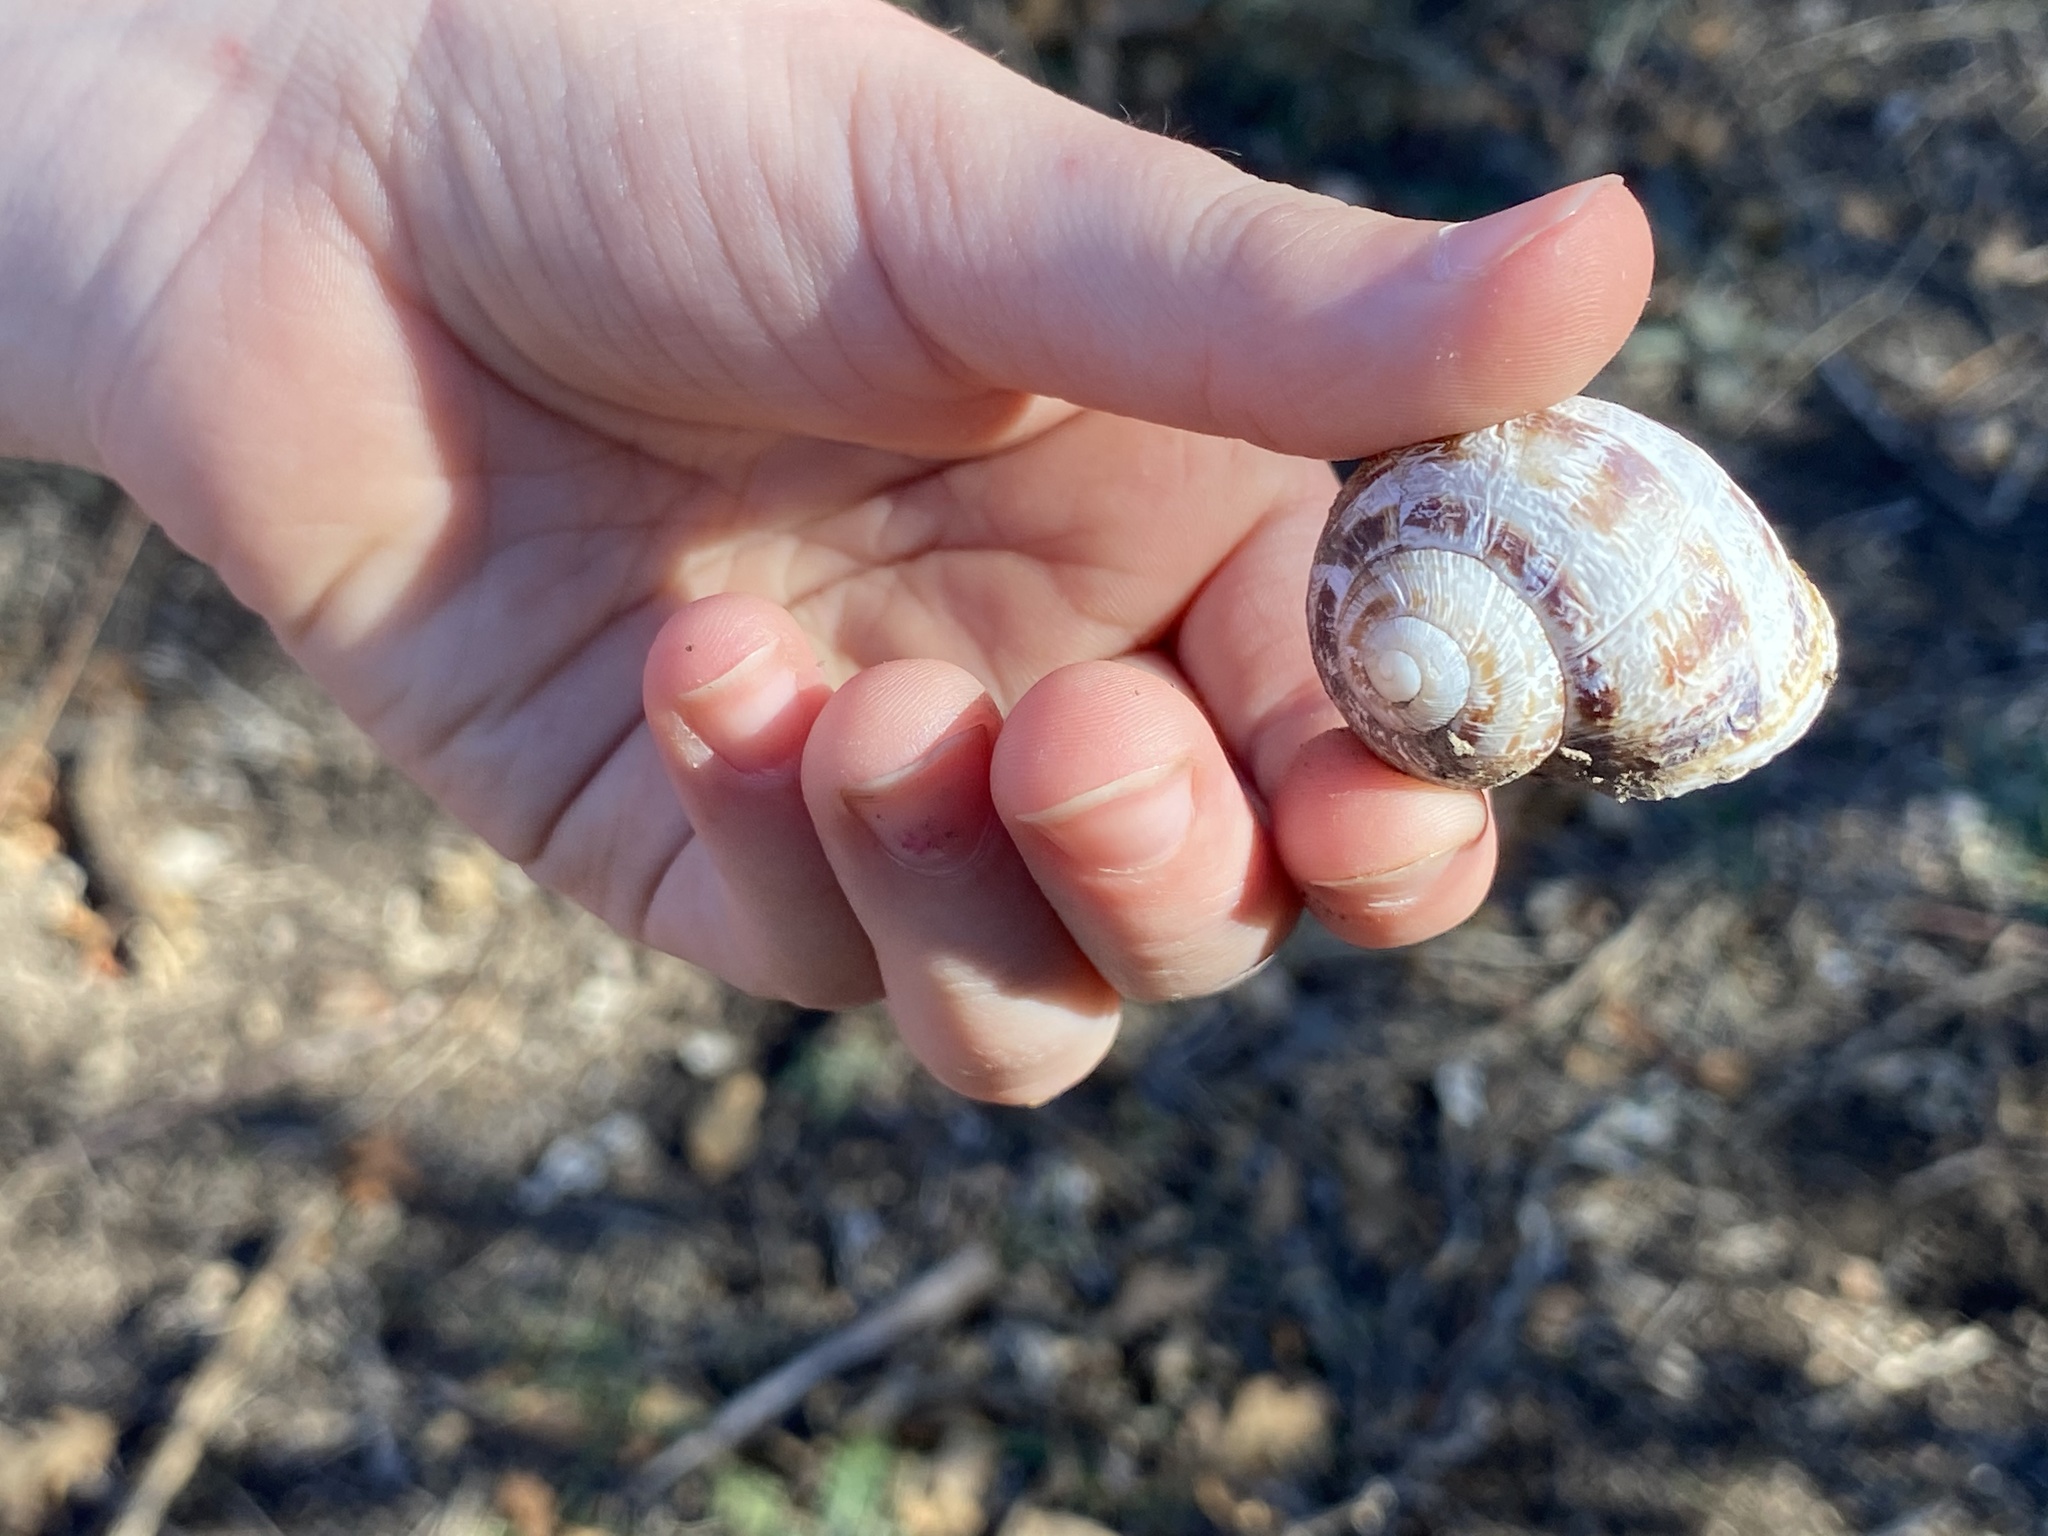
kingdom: Animalia
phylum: Mollusca
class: Gastropoda
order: Stylommatophora
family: Helicidae
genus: Cornu
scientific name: Cornu aspersum
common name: Brown garden snail
